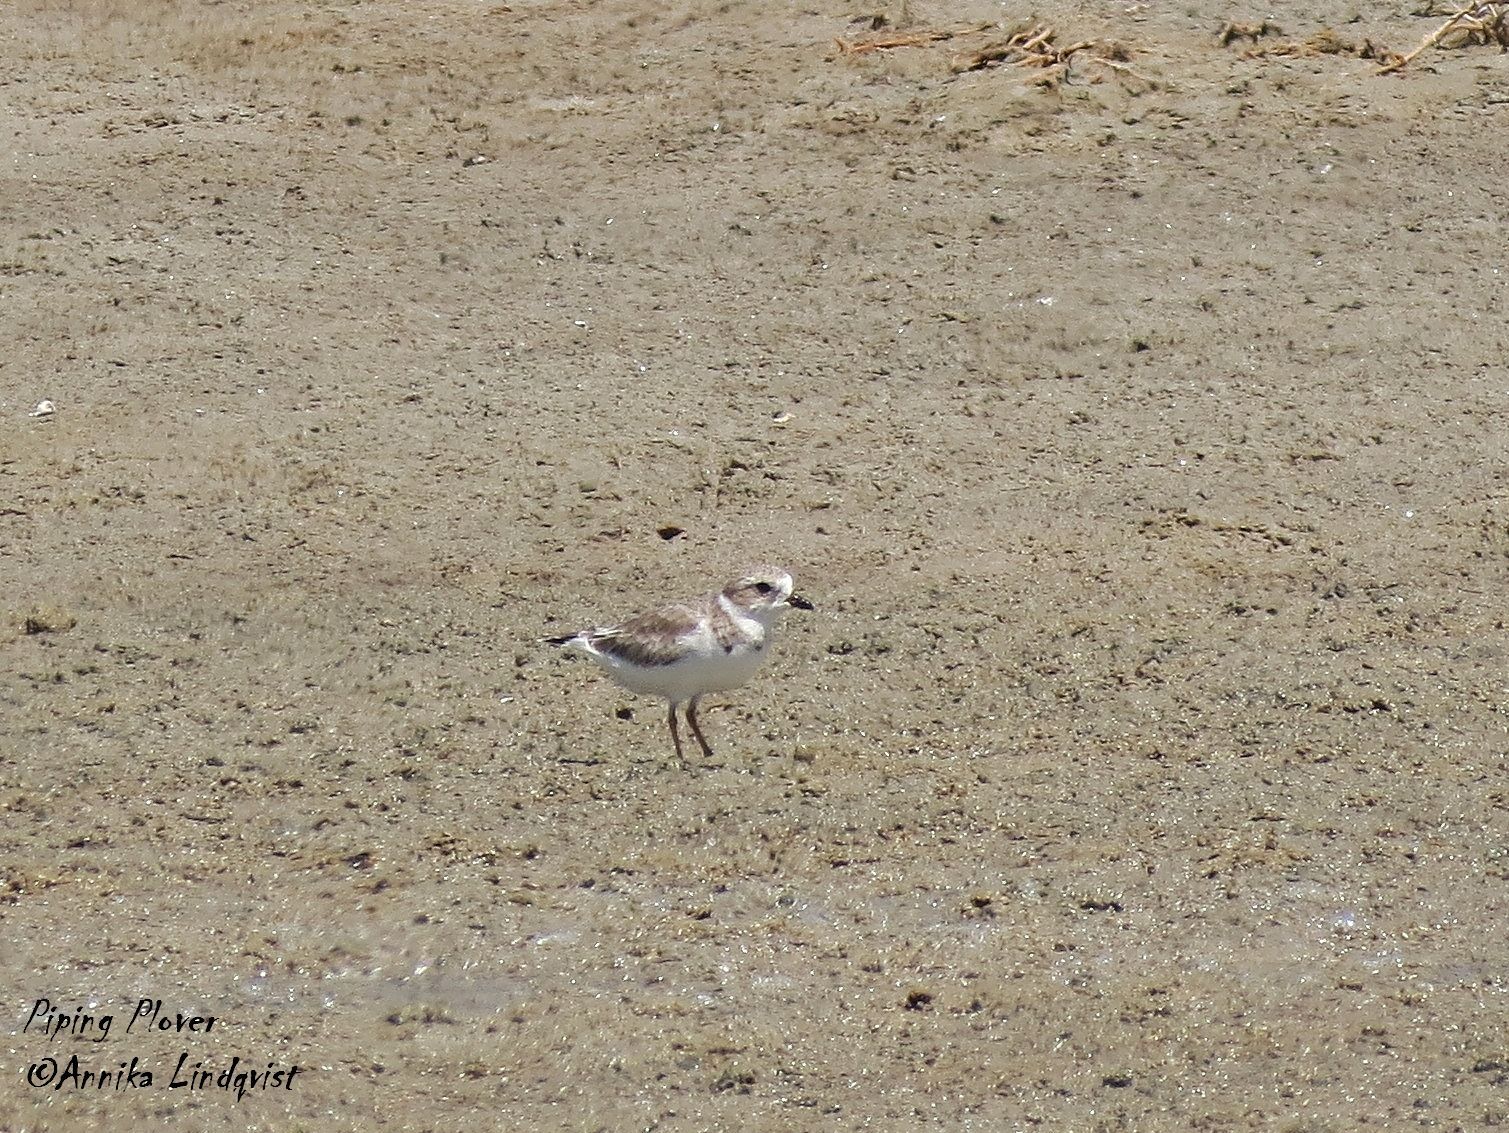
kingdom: Animalia
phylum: Chordata
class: Aves
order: Charadriiformes
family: Charadriidae
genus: Charadrius
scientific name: Charadrius melodus
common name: Piping plover
